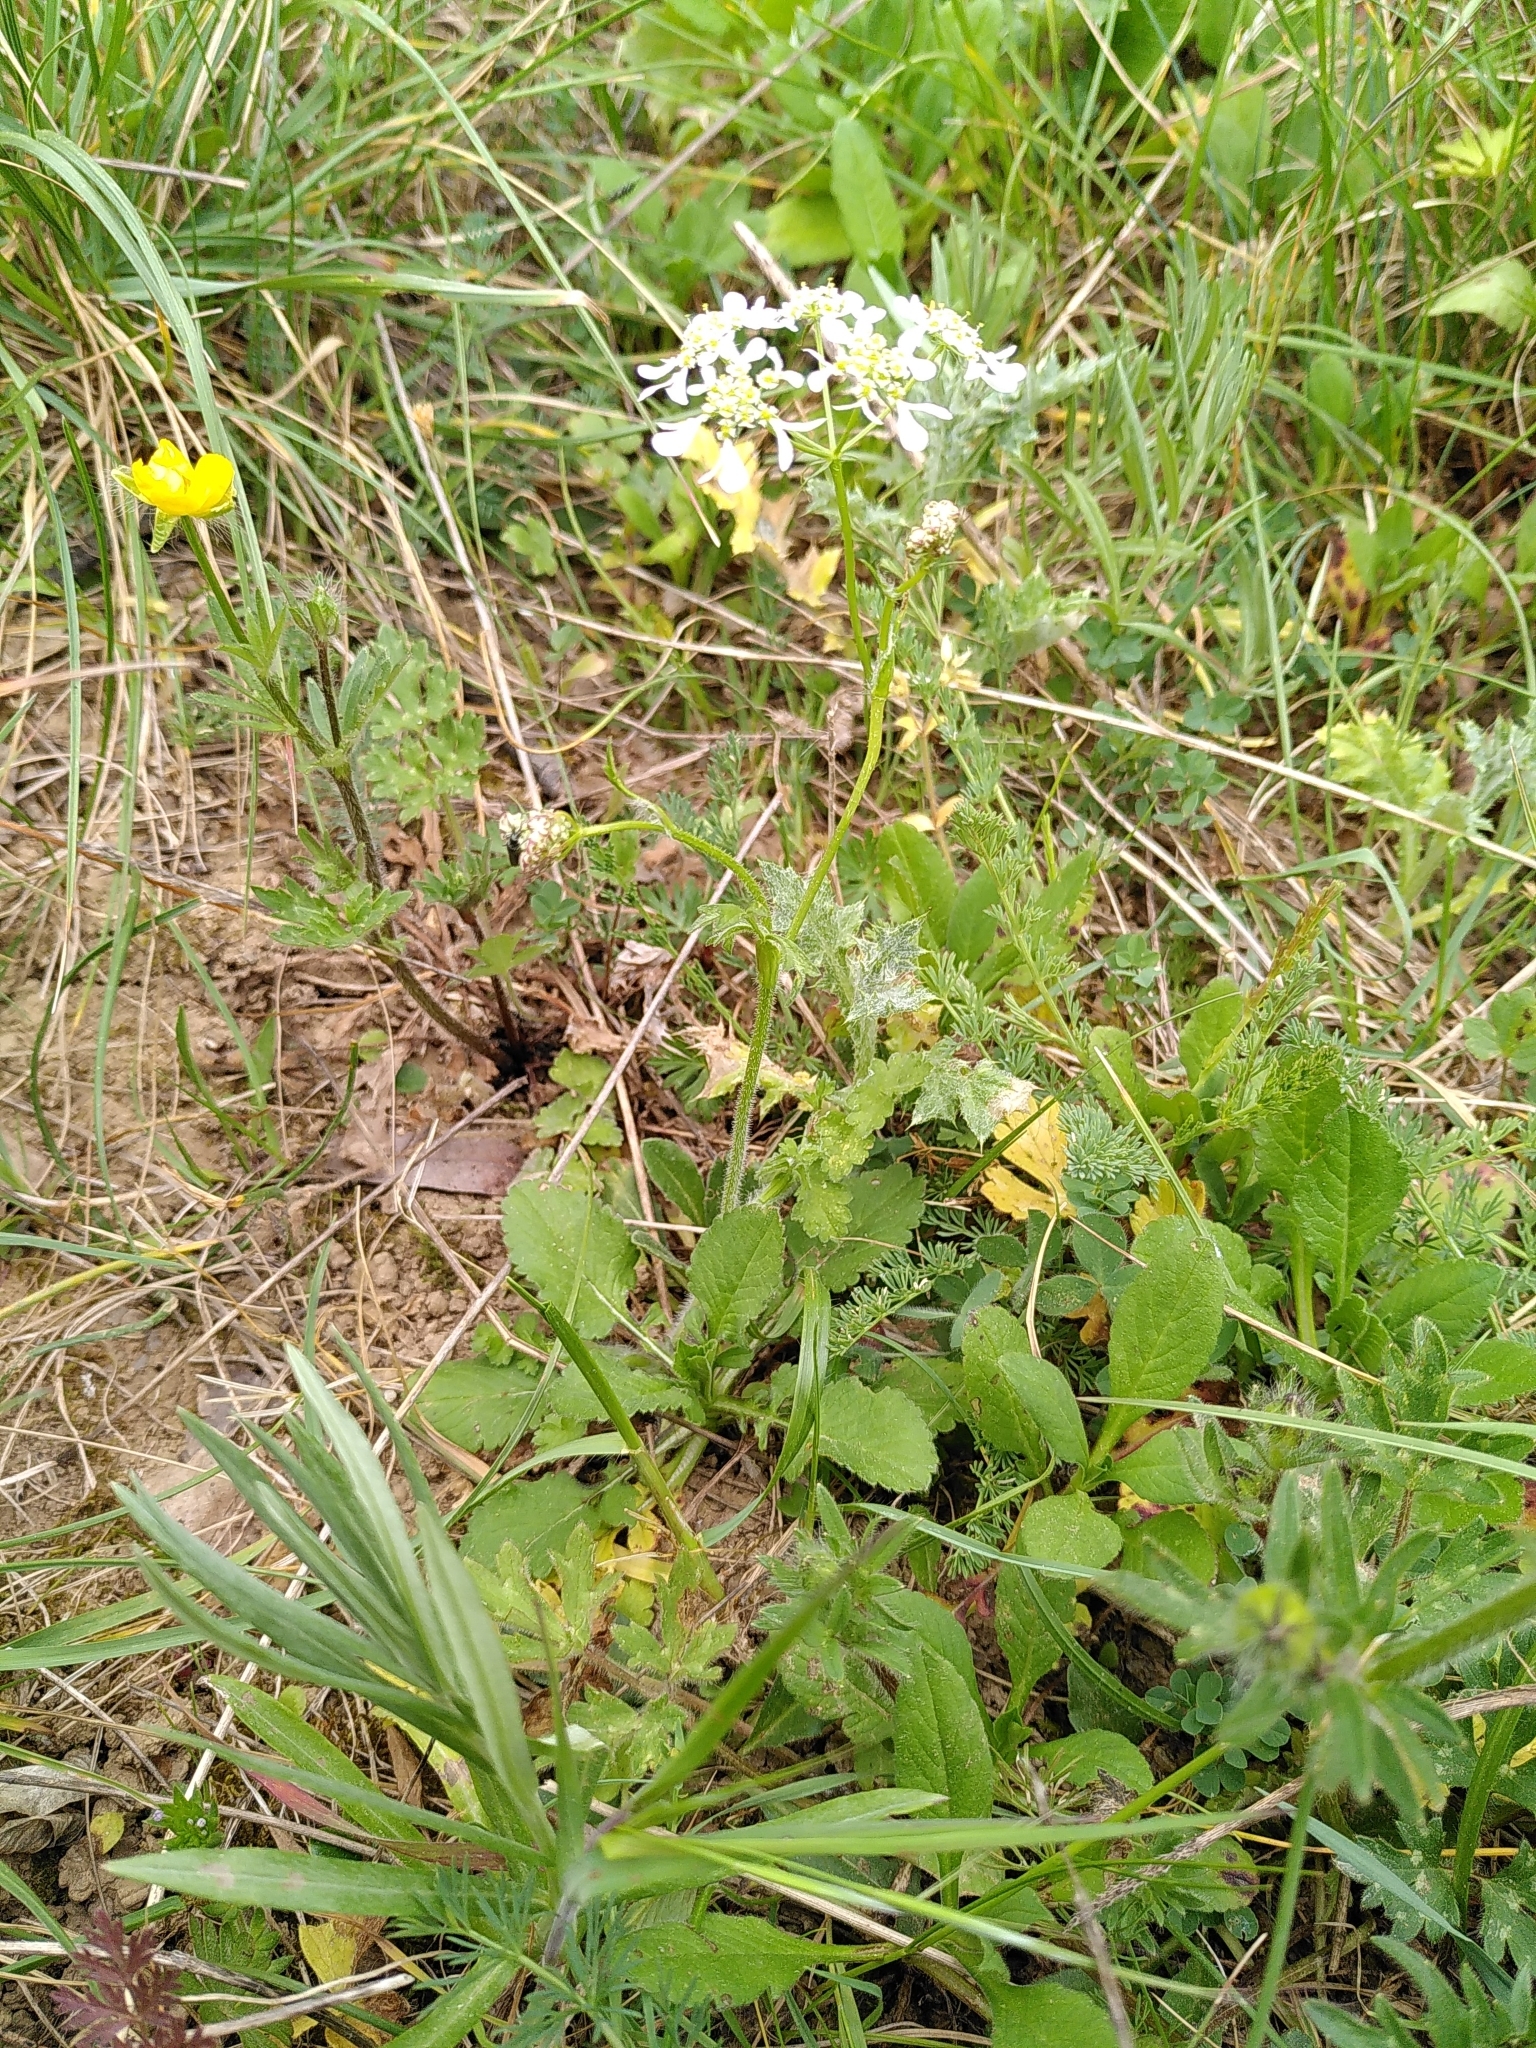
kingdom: Plantae
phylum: Tracheophyta
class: Magnoliopsida
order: Apiales
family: Apiaceae
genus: Tordylium
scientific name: Tordylium apulum
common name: Mediterranean hartwort
